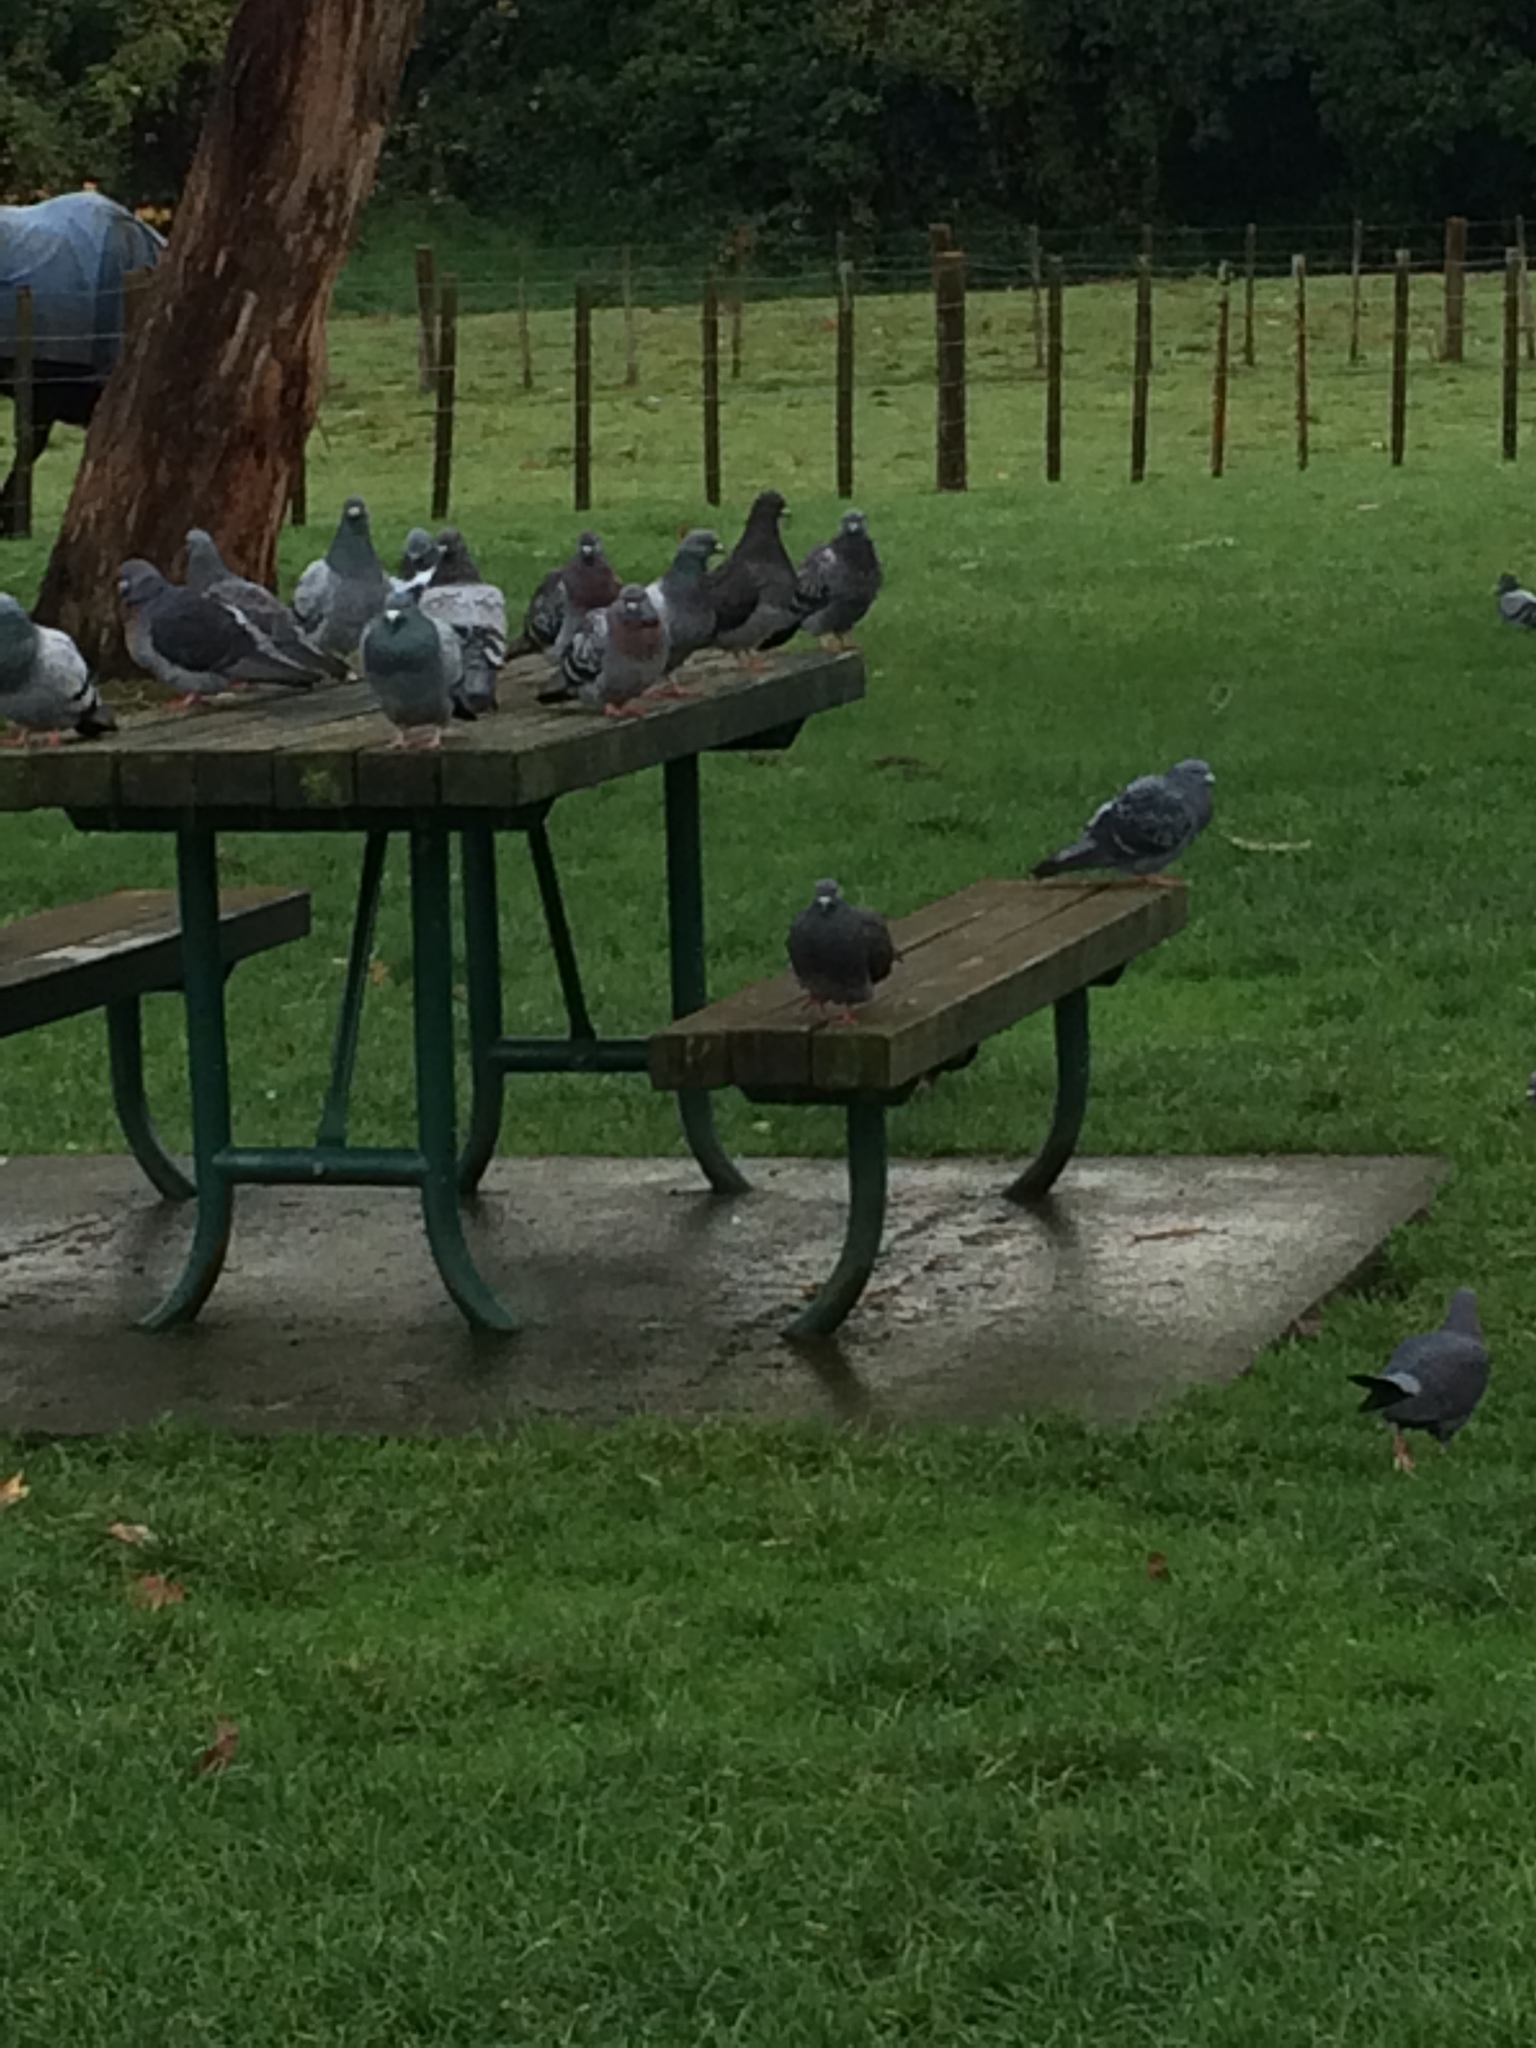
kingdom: Animalia
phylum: Chordata
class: Aves
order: Columbiformes
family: Columbidae
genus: Columba
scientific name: Columba livia
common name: Rock pigeon
